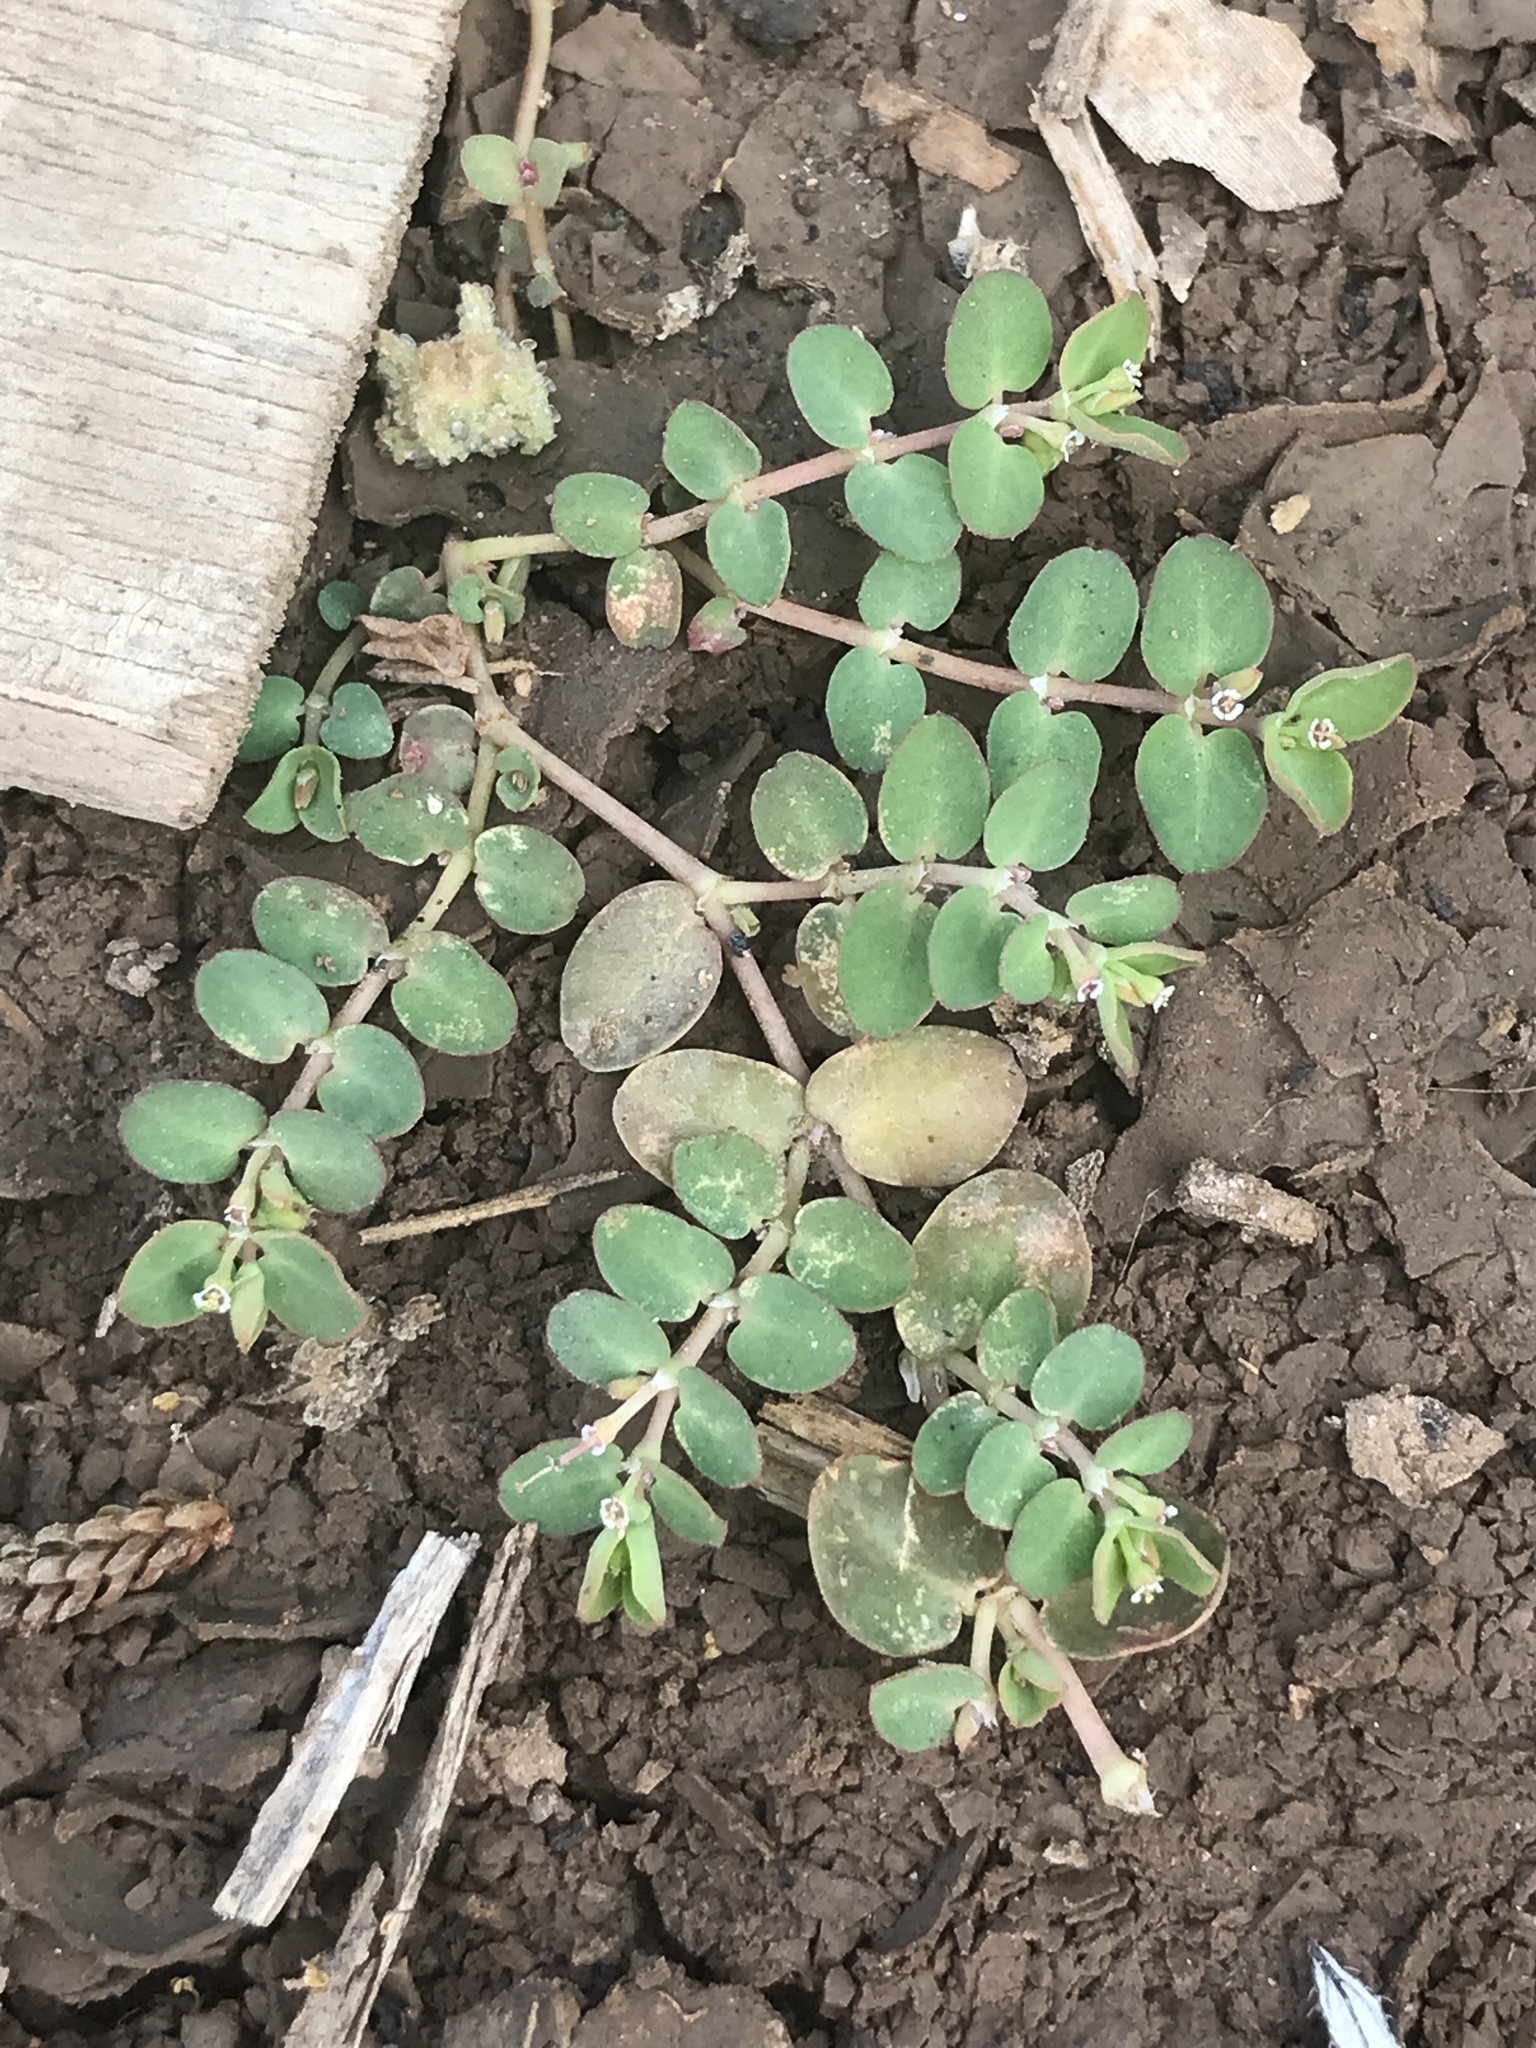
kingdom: Plantae
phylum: Tracheophyta
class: Magnoliopsida
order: Malpighiales
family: Euphorbiaceae
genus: Euphorbia
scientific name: Euphorbia serpens
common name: Matted sandmat
